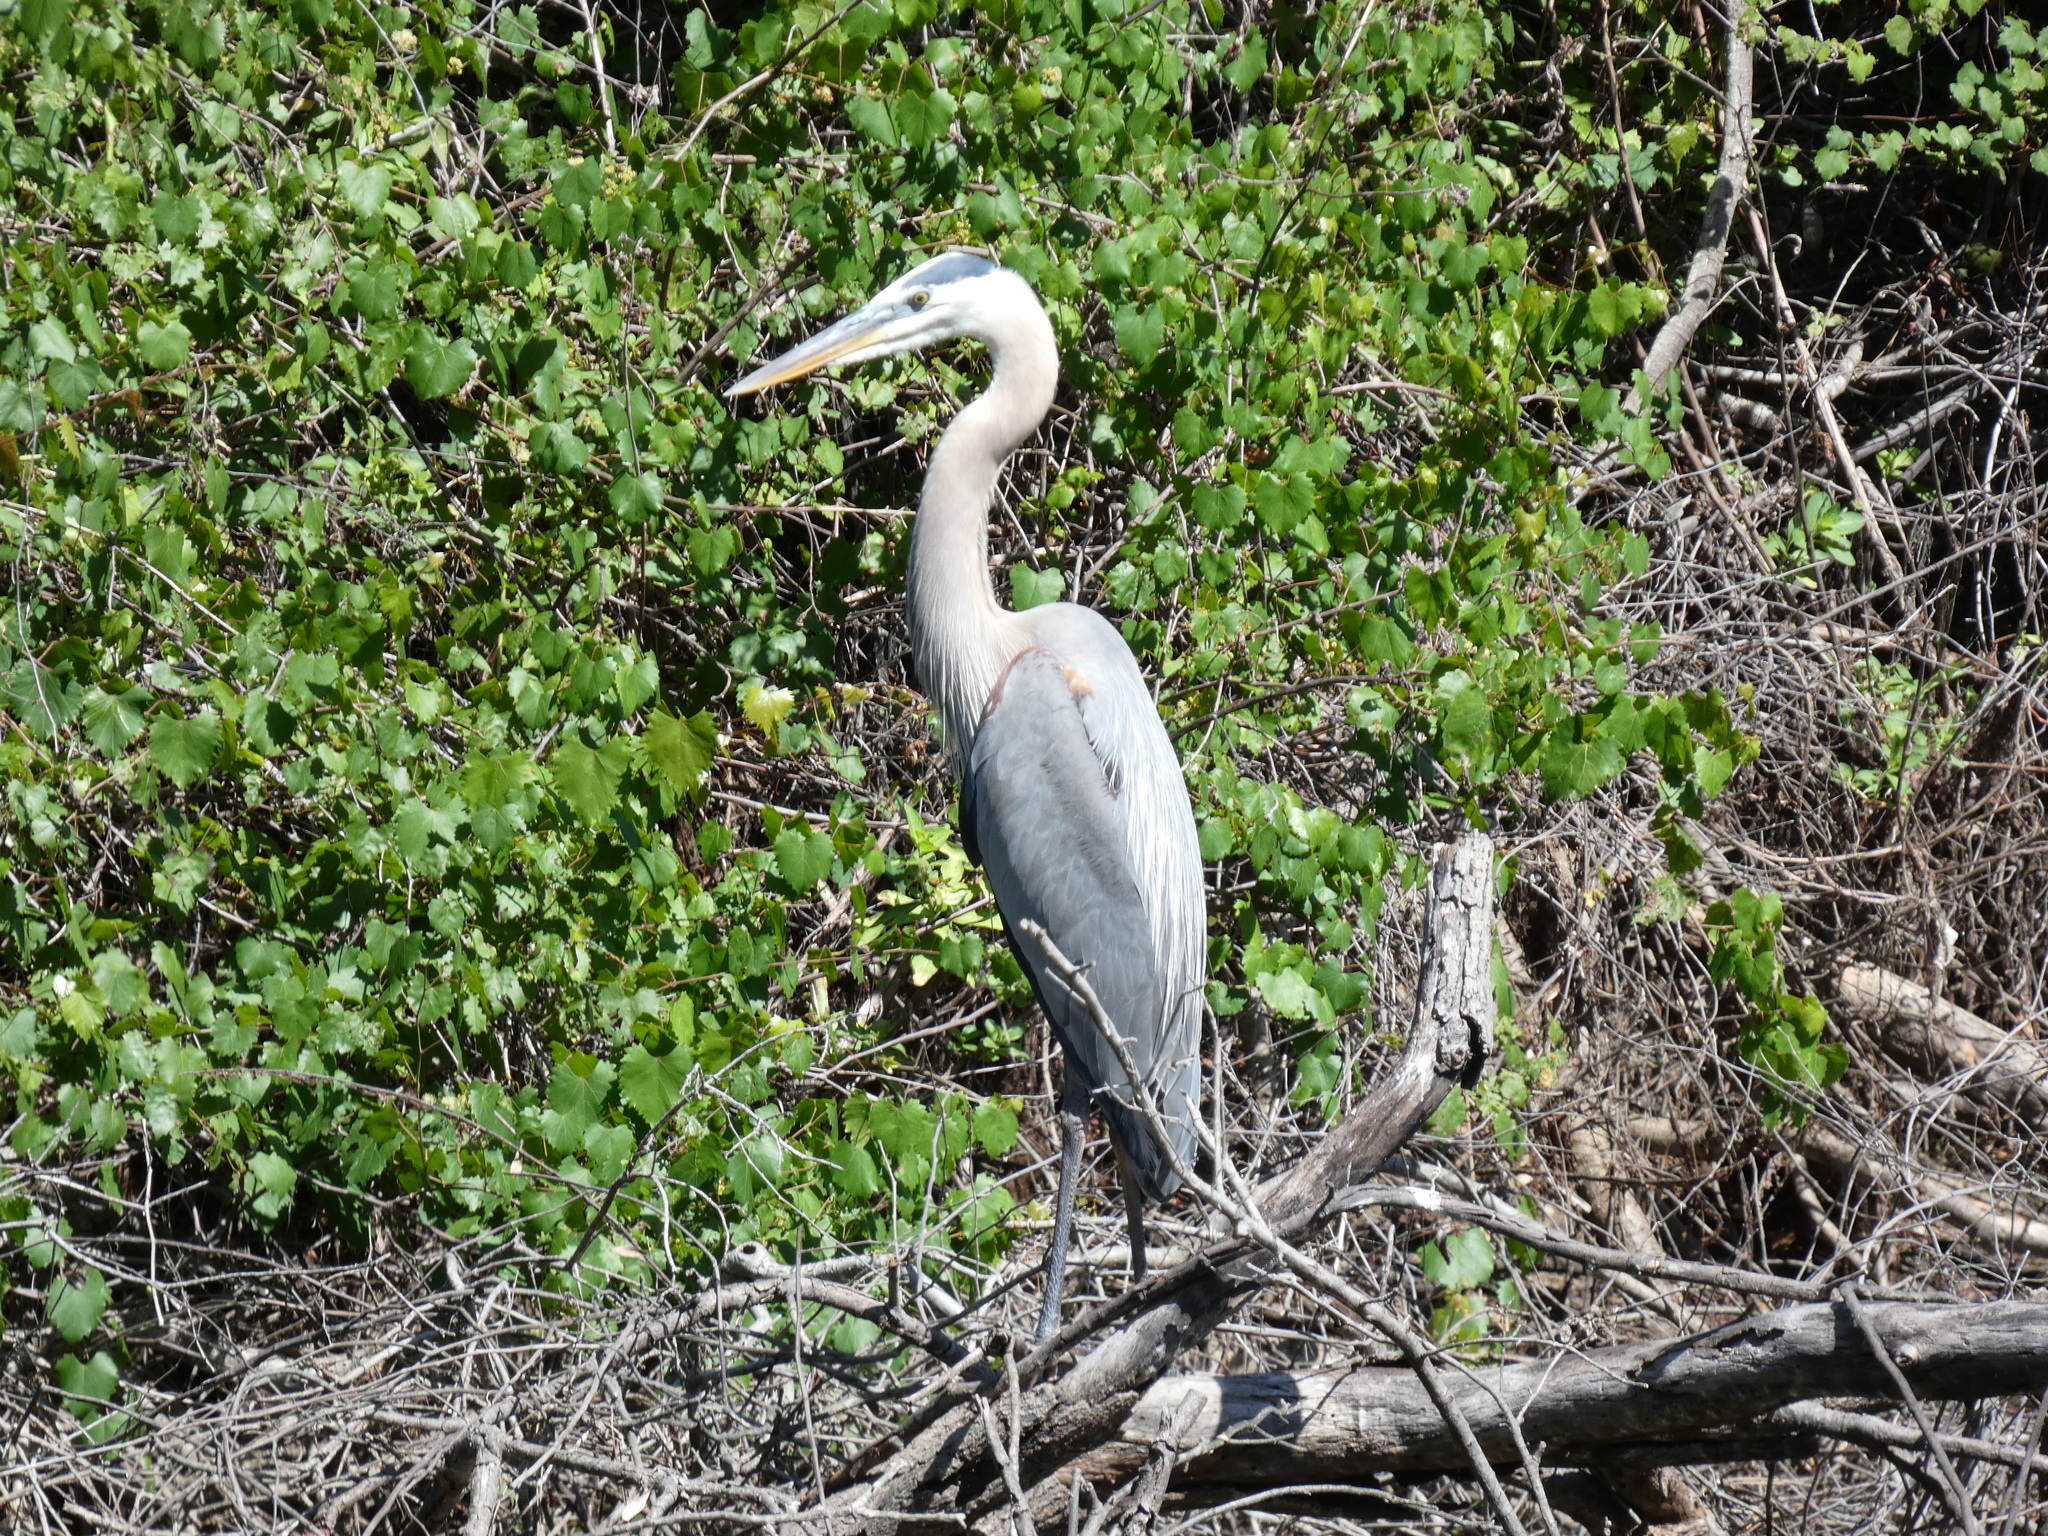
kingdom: Animalia
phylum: Chordata
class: Aves
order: Pelecaniformes
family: Ardeidae
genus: Ardea
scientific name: Ardea herodias
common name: Great blue heron
